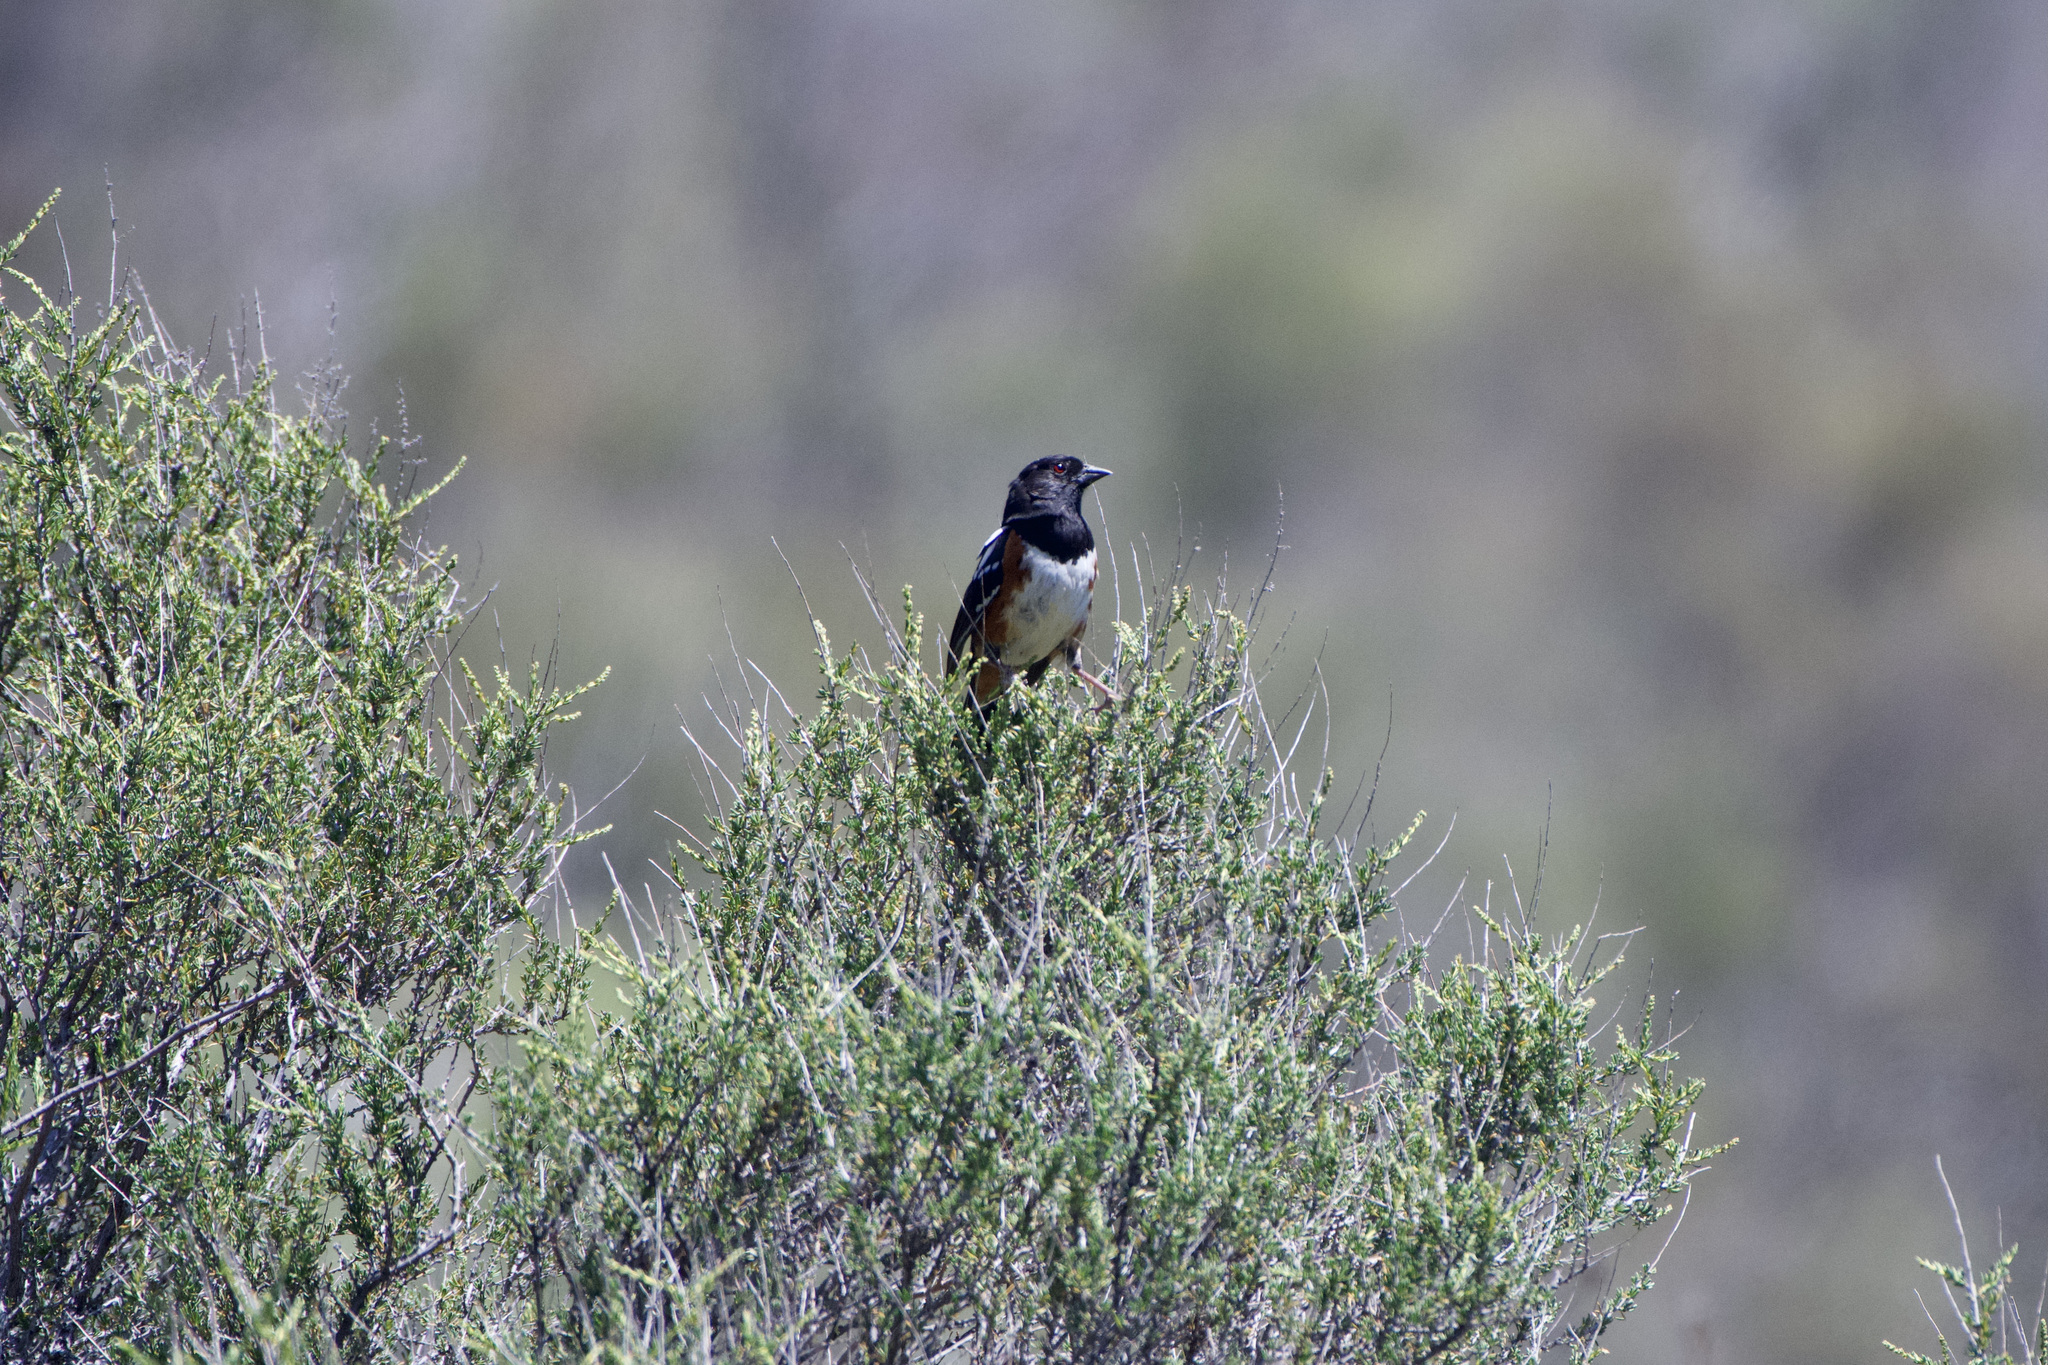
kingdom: Animalia
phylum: Chordata
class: Aves
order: Passeriformes
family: Passerellidae
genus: Pipilo
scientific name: Pipilo maculatus
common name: Spotted towhee
